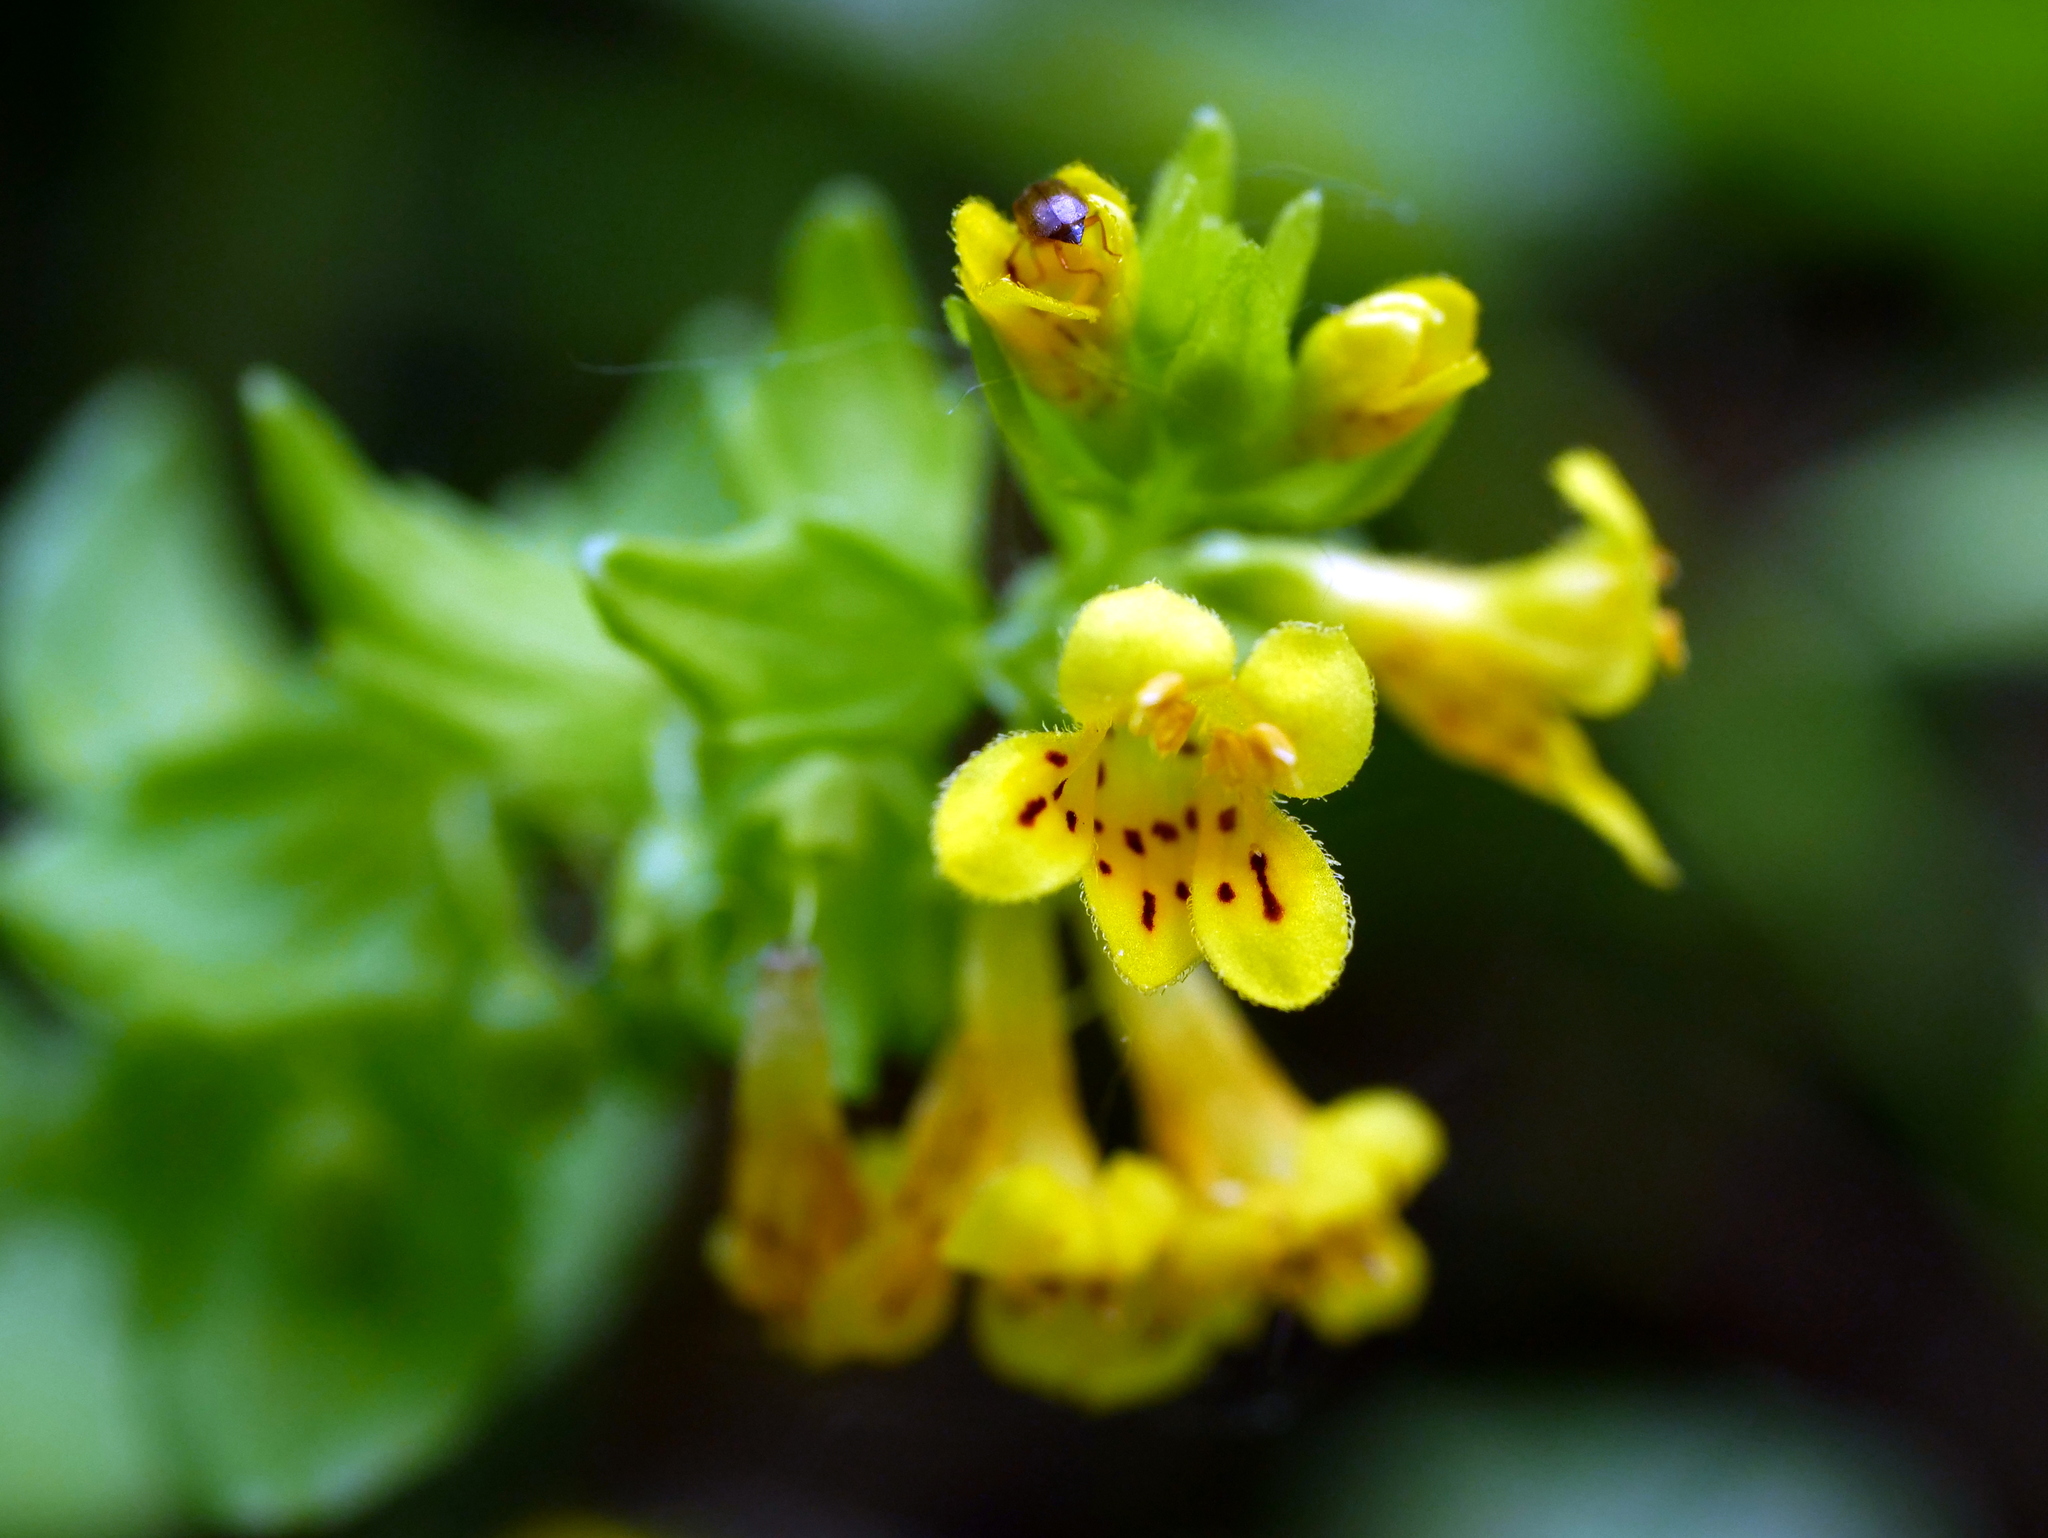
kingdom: Plantae
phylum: Tracheophyta
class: Magnoliopsida
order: Lamiales
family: Orobanchaceae
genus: Tozzia
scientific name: Tozzia alpina
